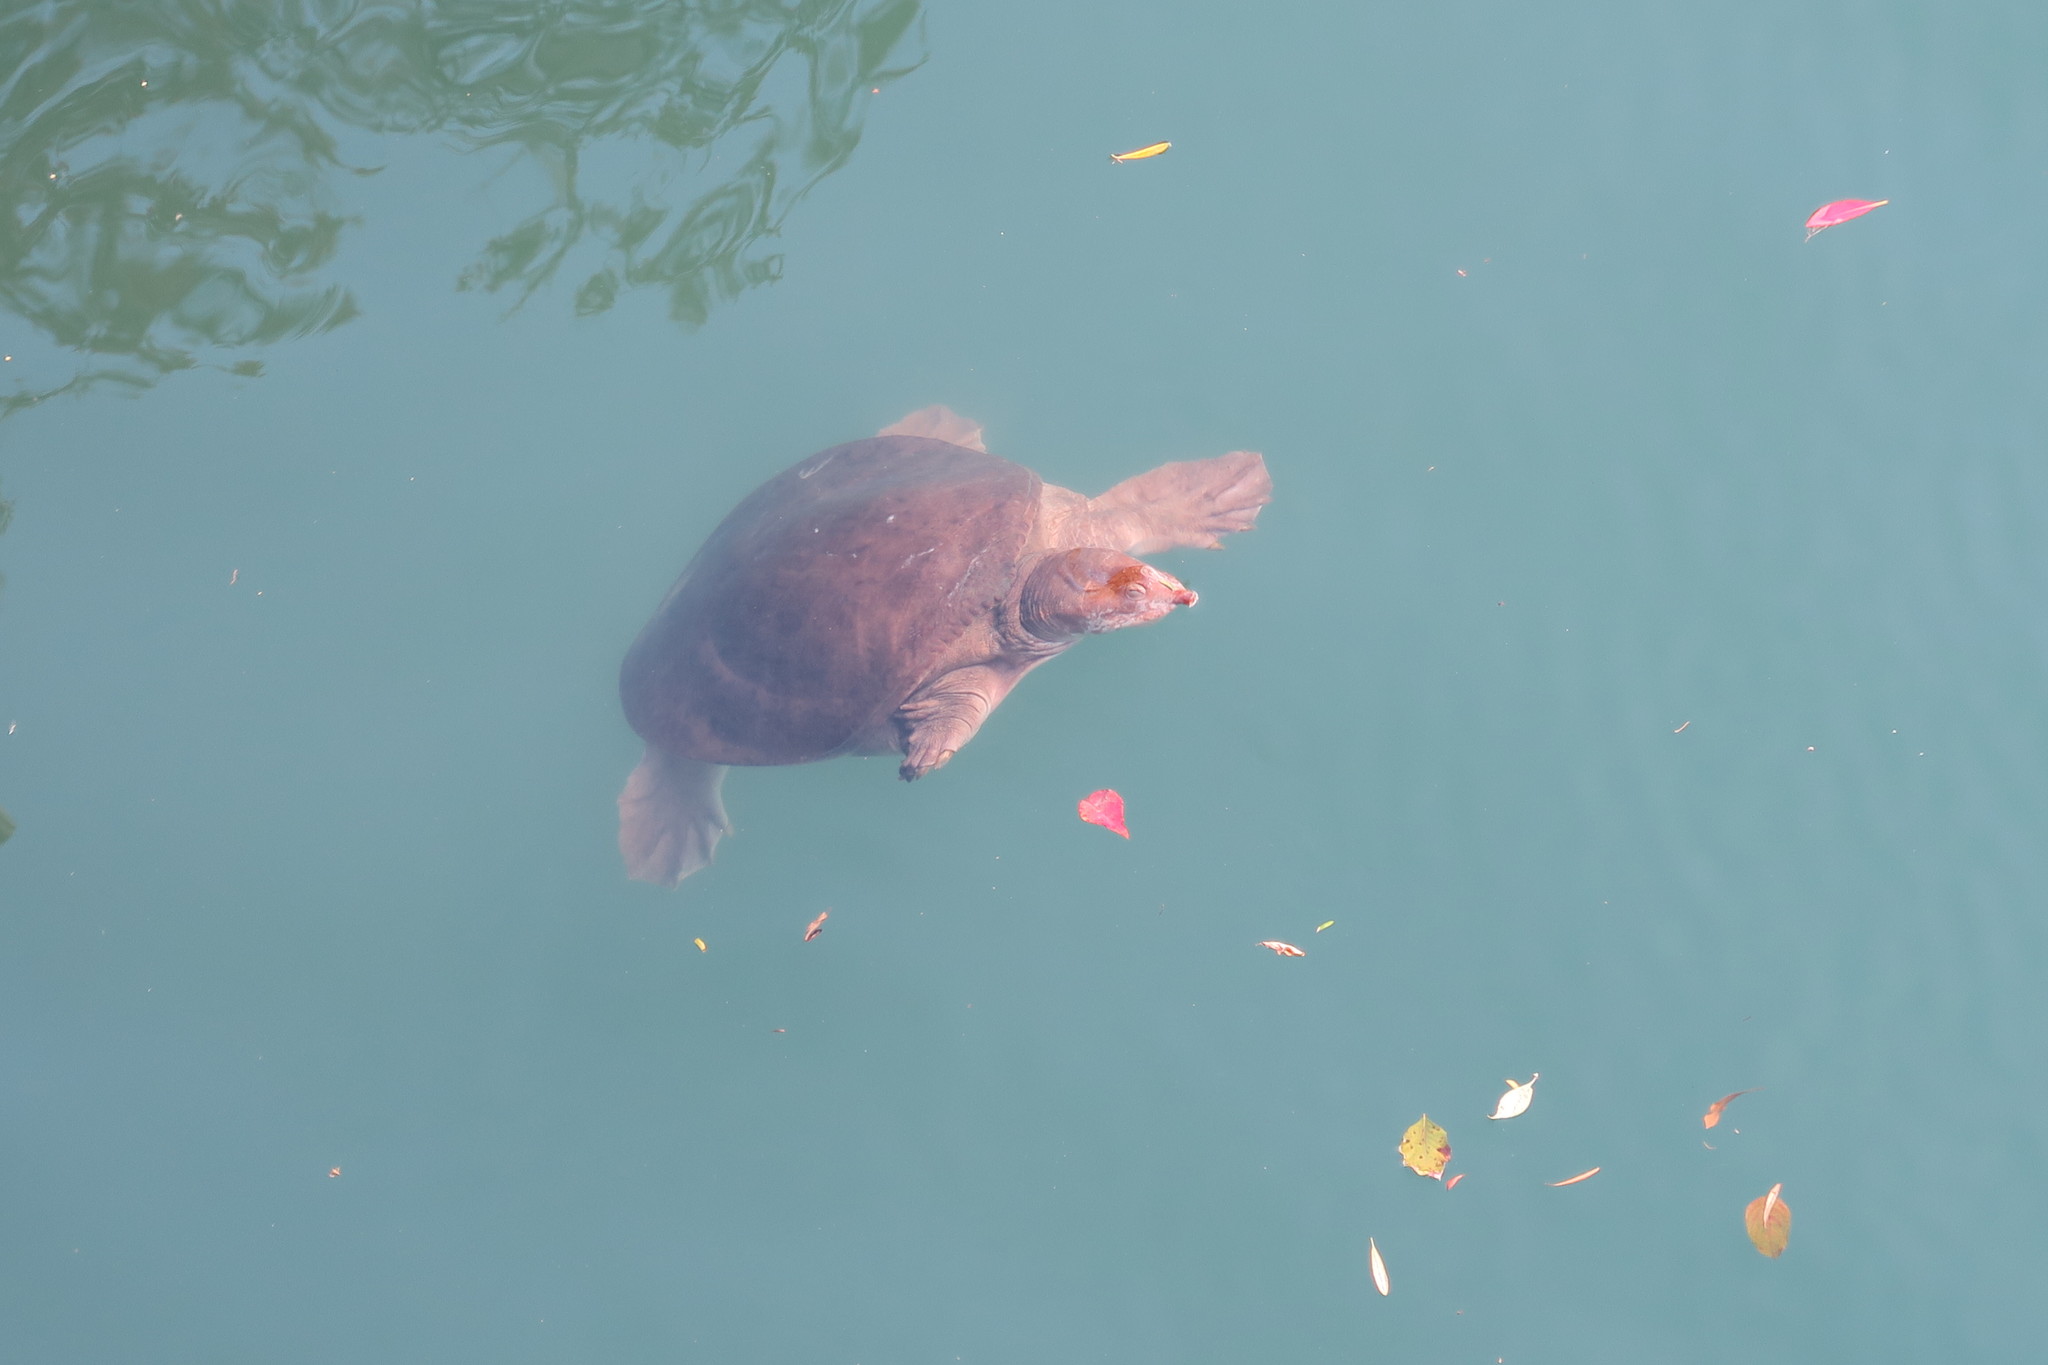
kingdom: Animalia
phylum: Chordata
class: Testudines
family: Trionychidae
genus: Apalone
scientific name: Apalone ferox
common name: Florida softshell turtle
